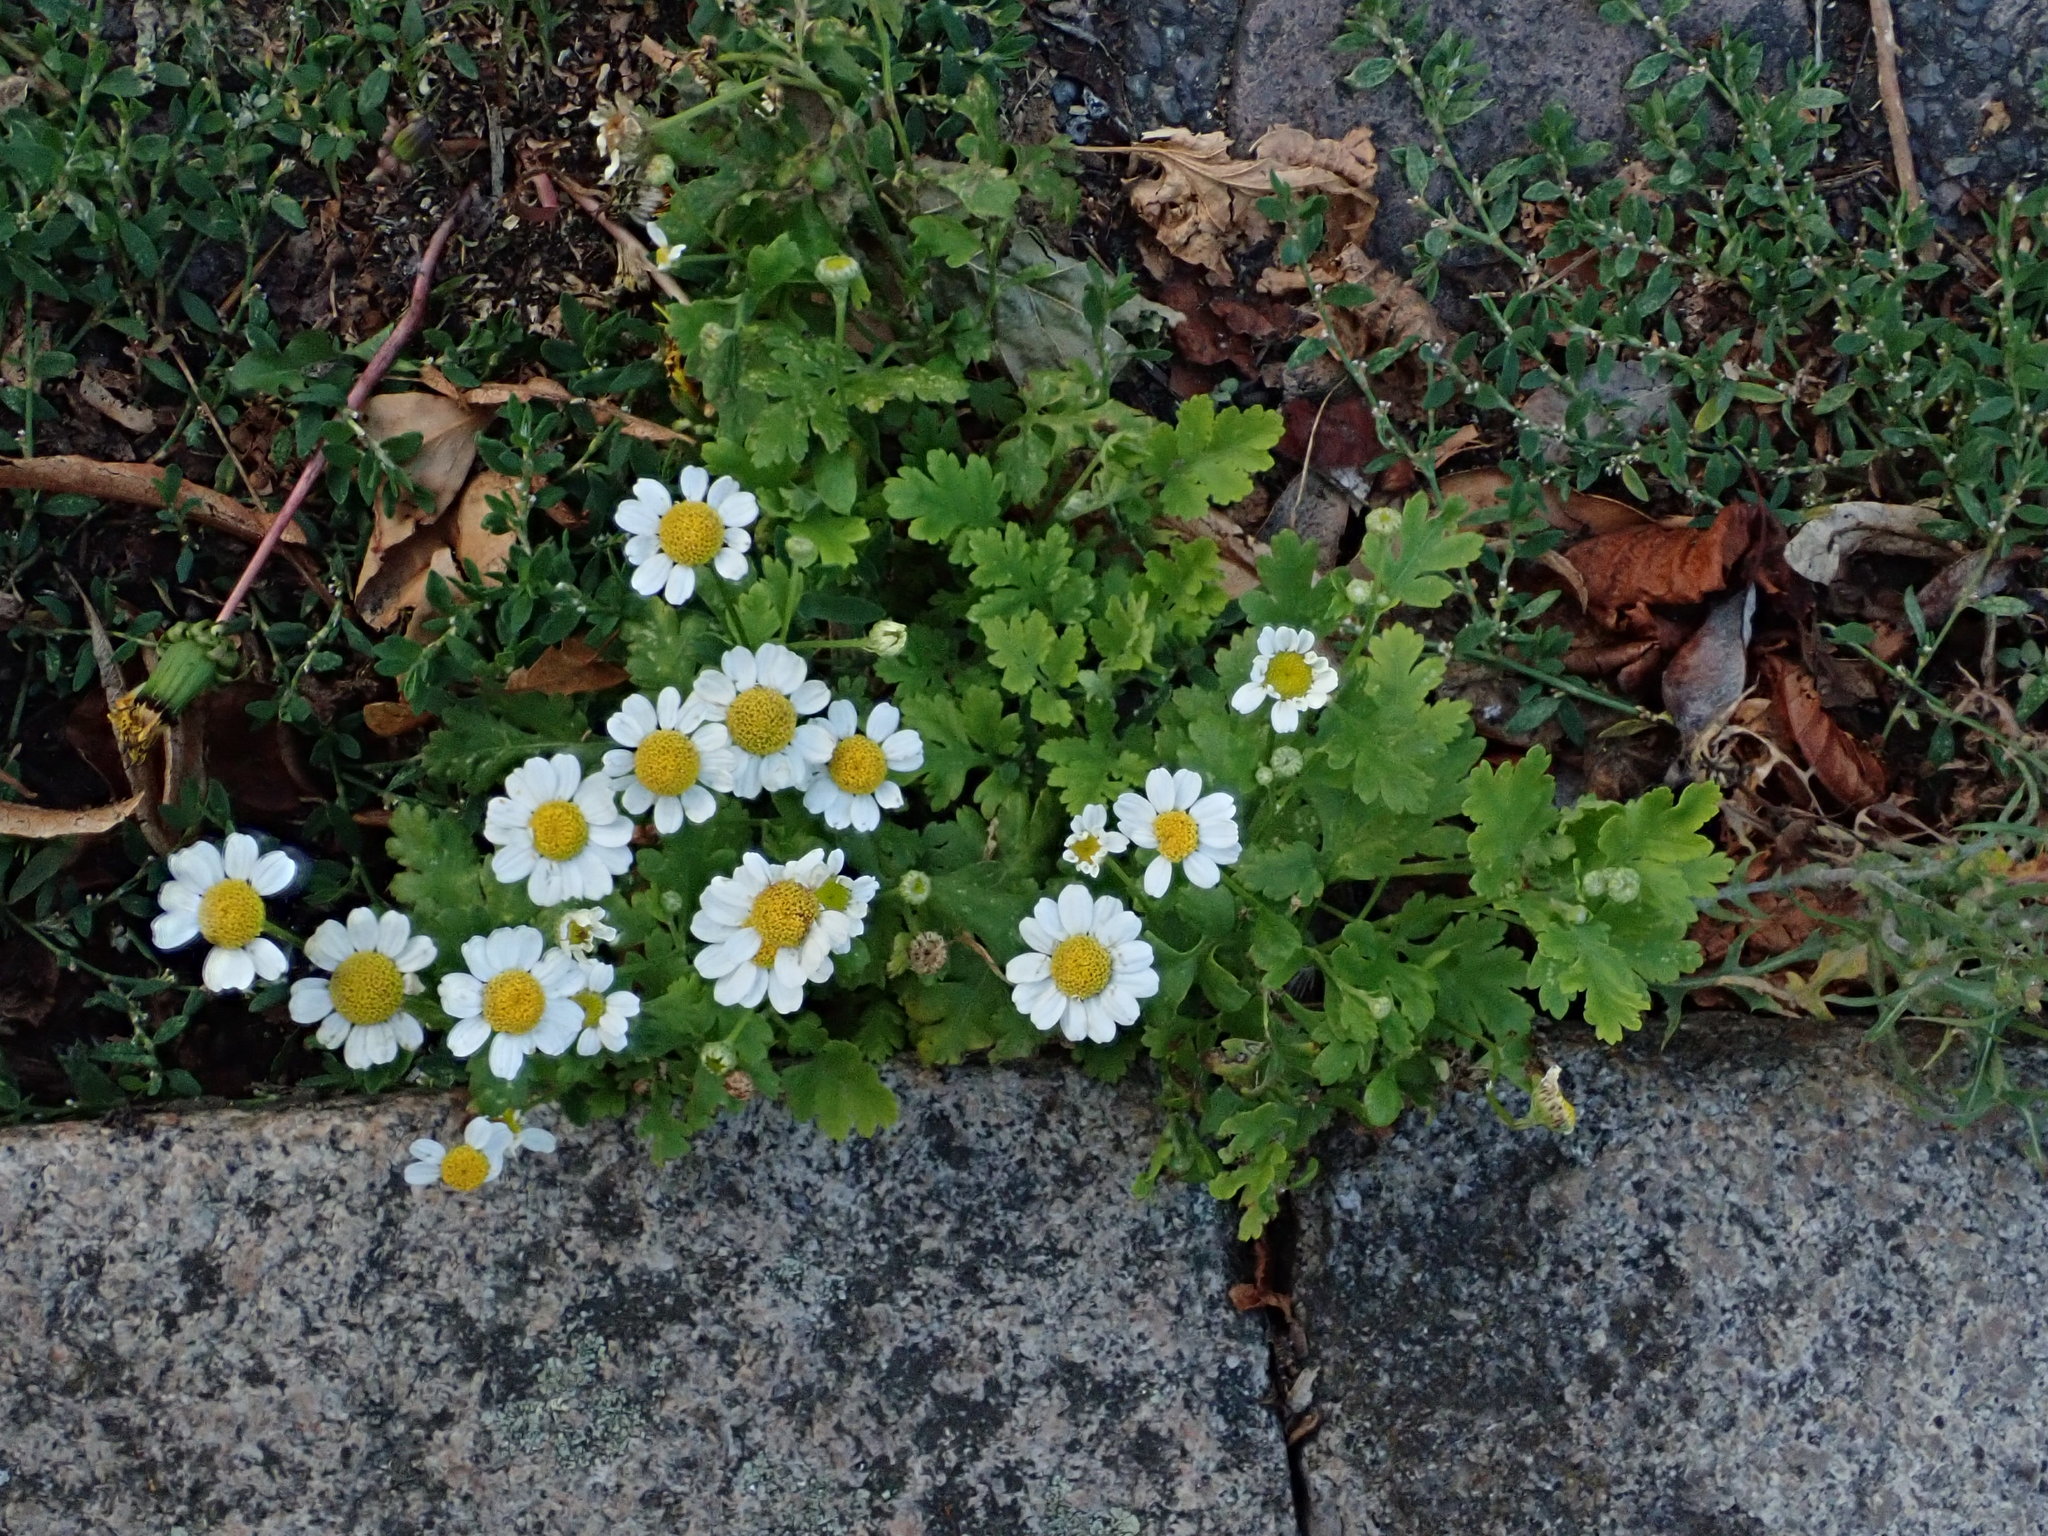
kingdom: Plantae
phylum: Tracheophyta
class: Magnoliopsida
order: Asterales
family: Asteraceae
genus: Tanacetum
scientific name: Tanacetum parthenium
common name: Feverfew
